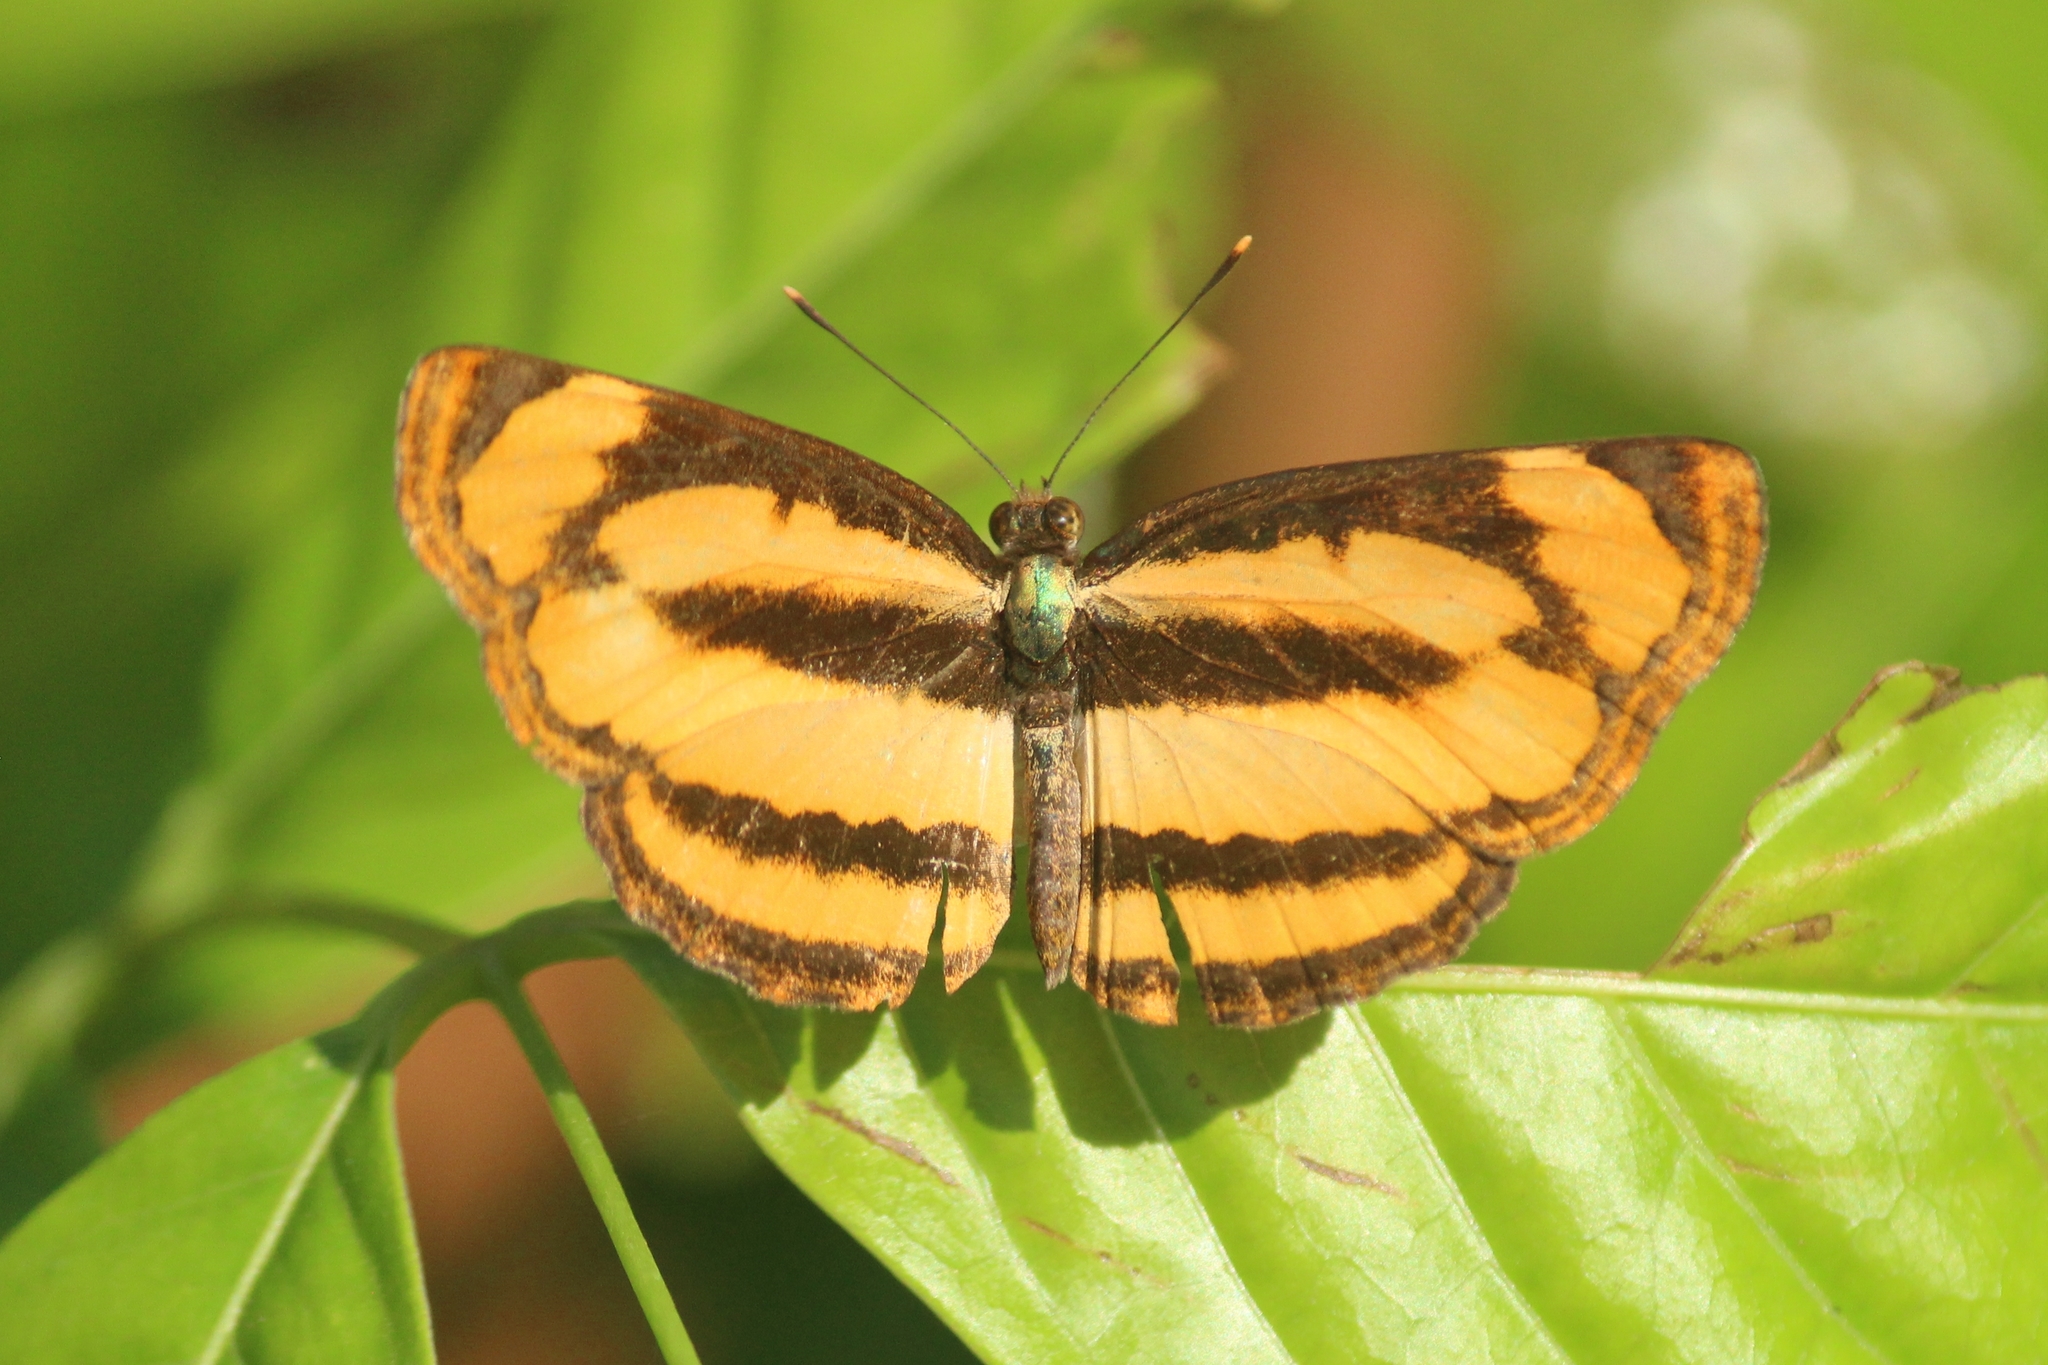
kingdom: Animalia
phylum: Arthropoda
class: Insecta
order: Lepidoptera
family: Nymphalidae
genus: Pantoporia
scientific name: Pantoporia hordonia
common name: Common lascar
